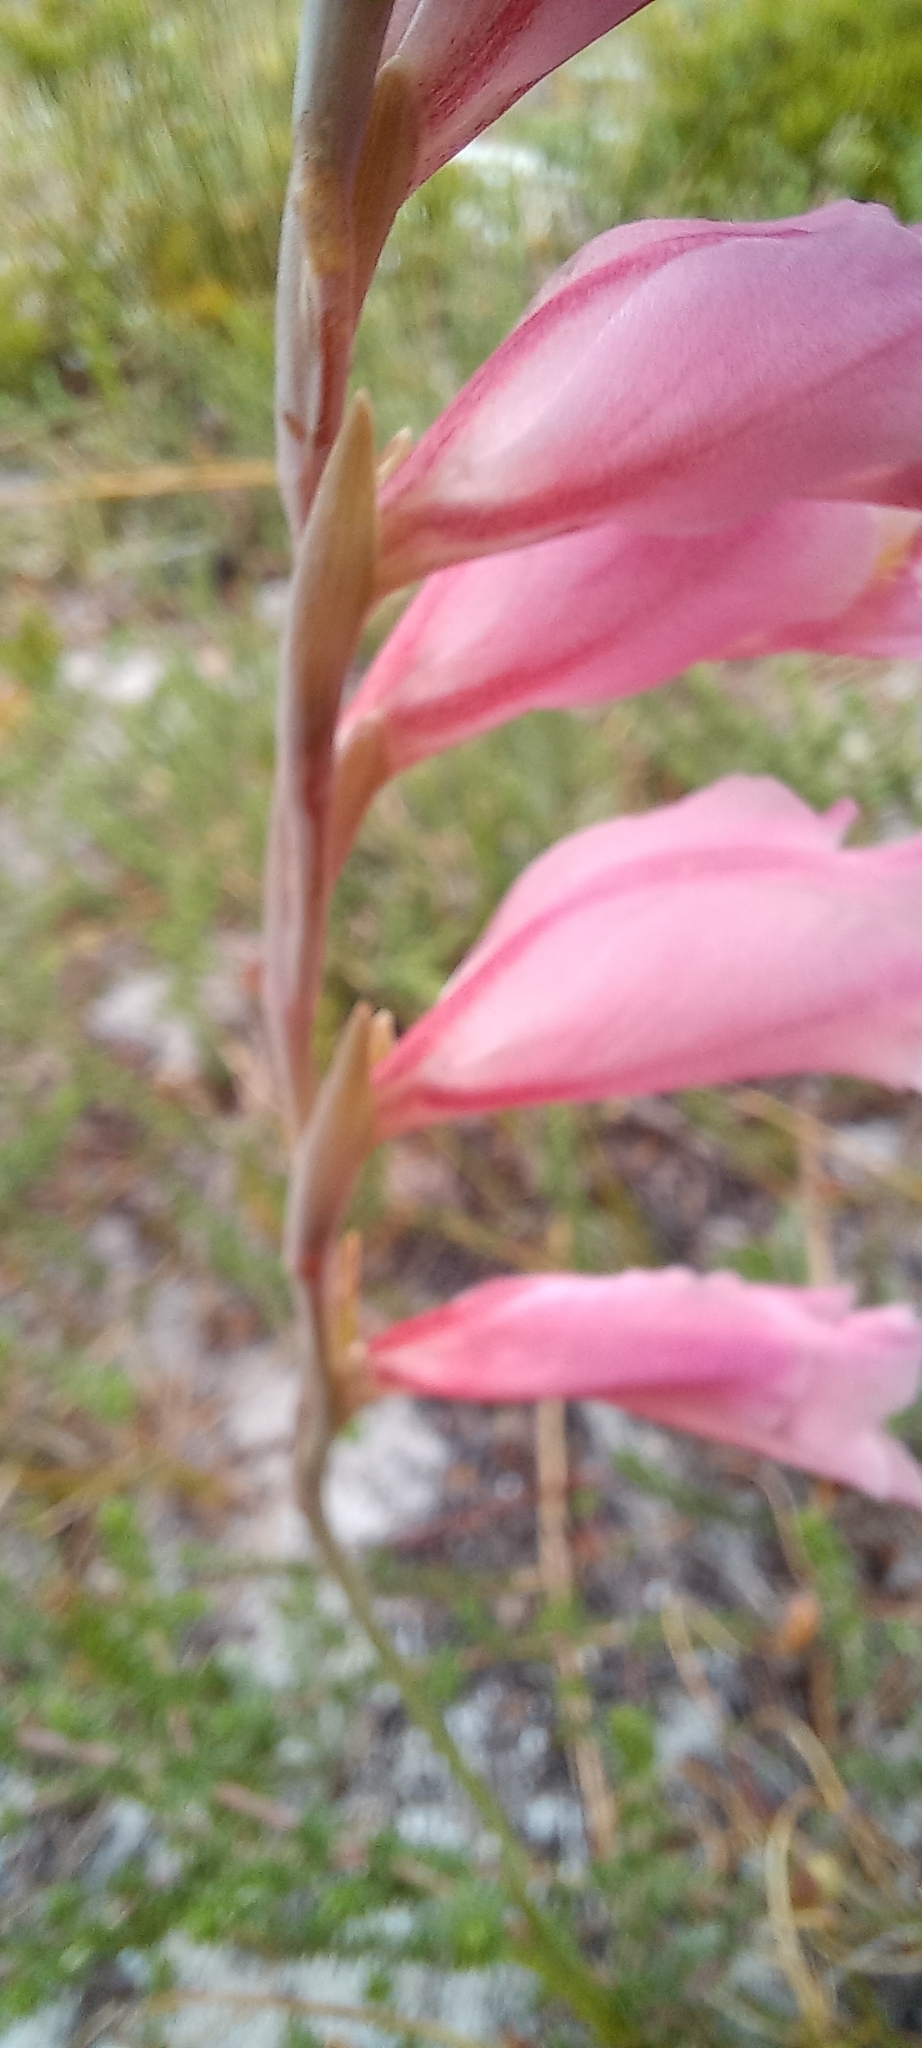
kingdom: Plantae
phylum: Tracheophyta
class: Liliopsida
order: Asparagales
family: Iridaceae
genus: Gladiolus
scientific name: Gladiolus brevifolius
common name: March pypie
